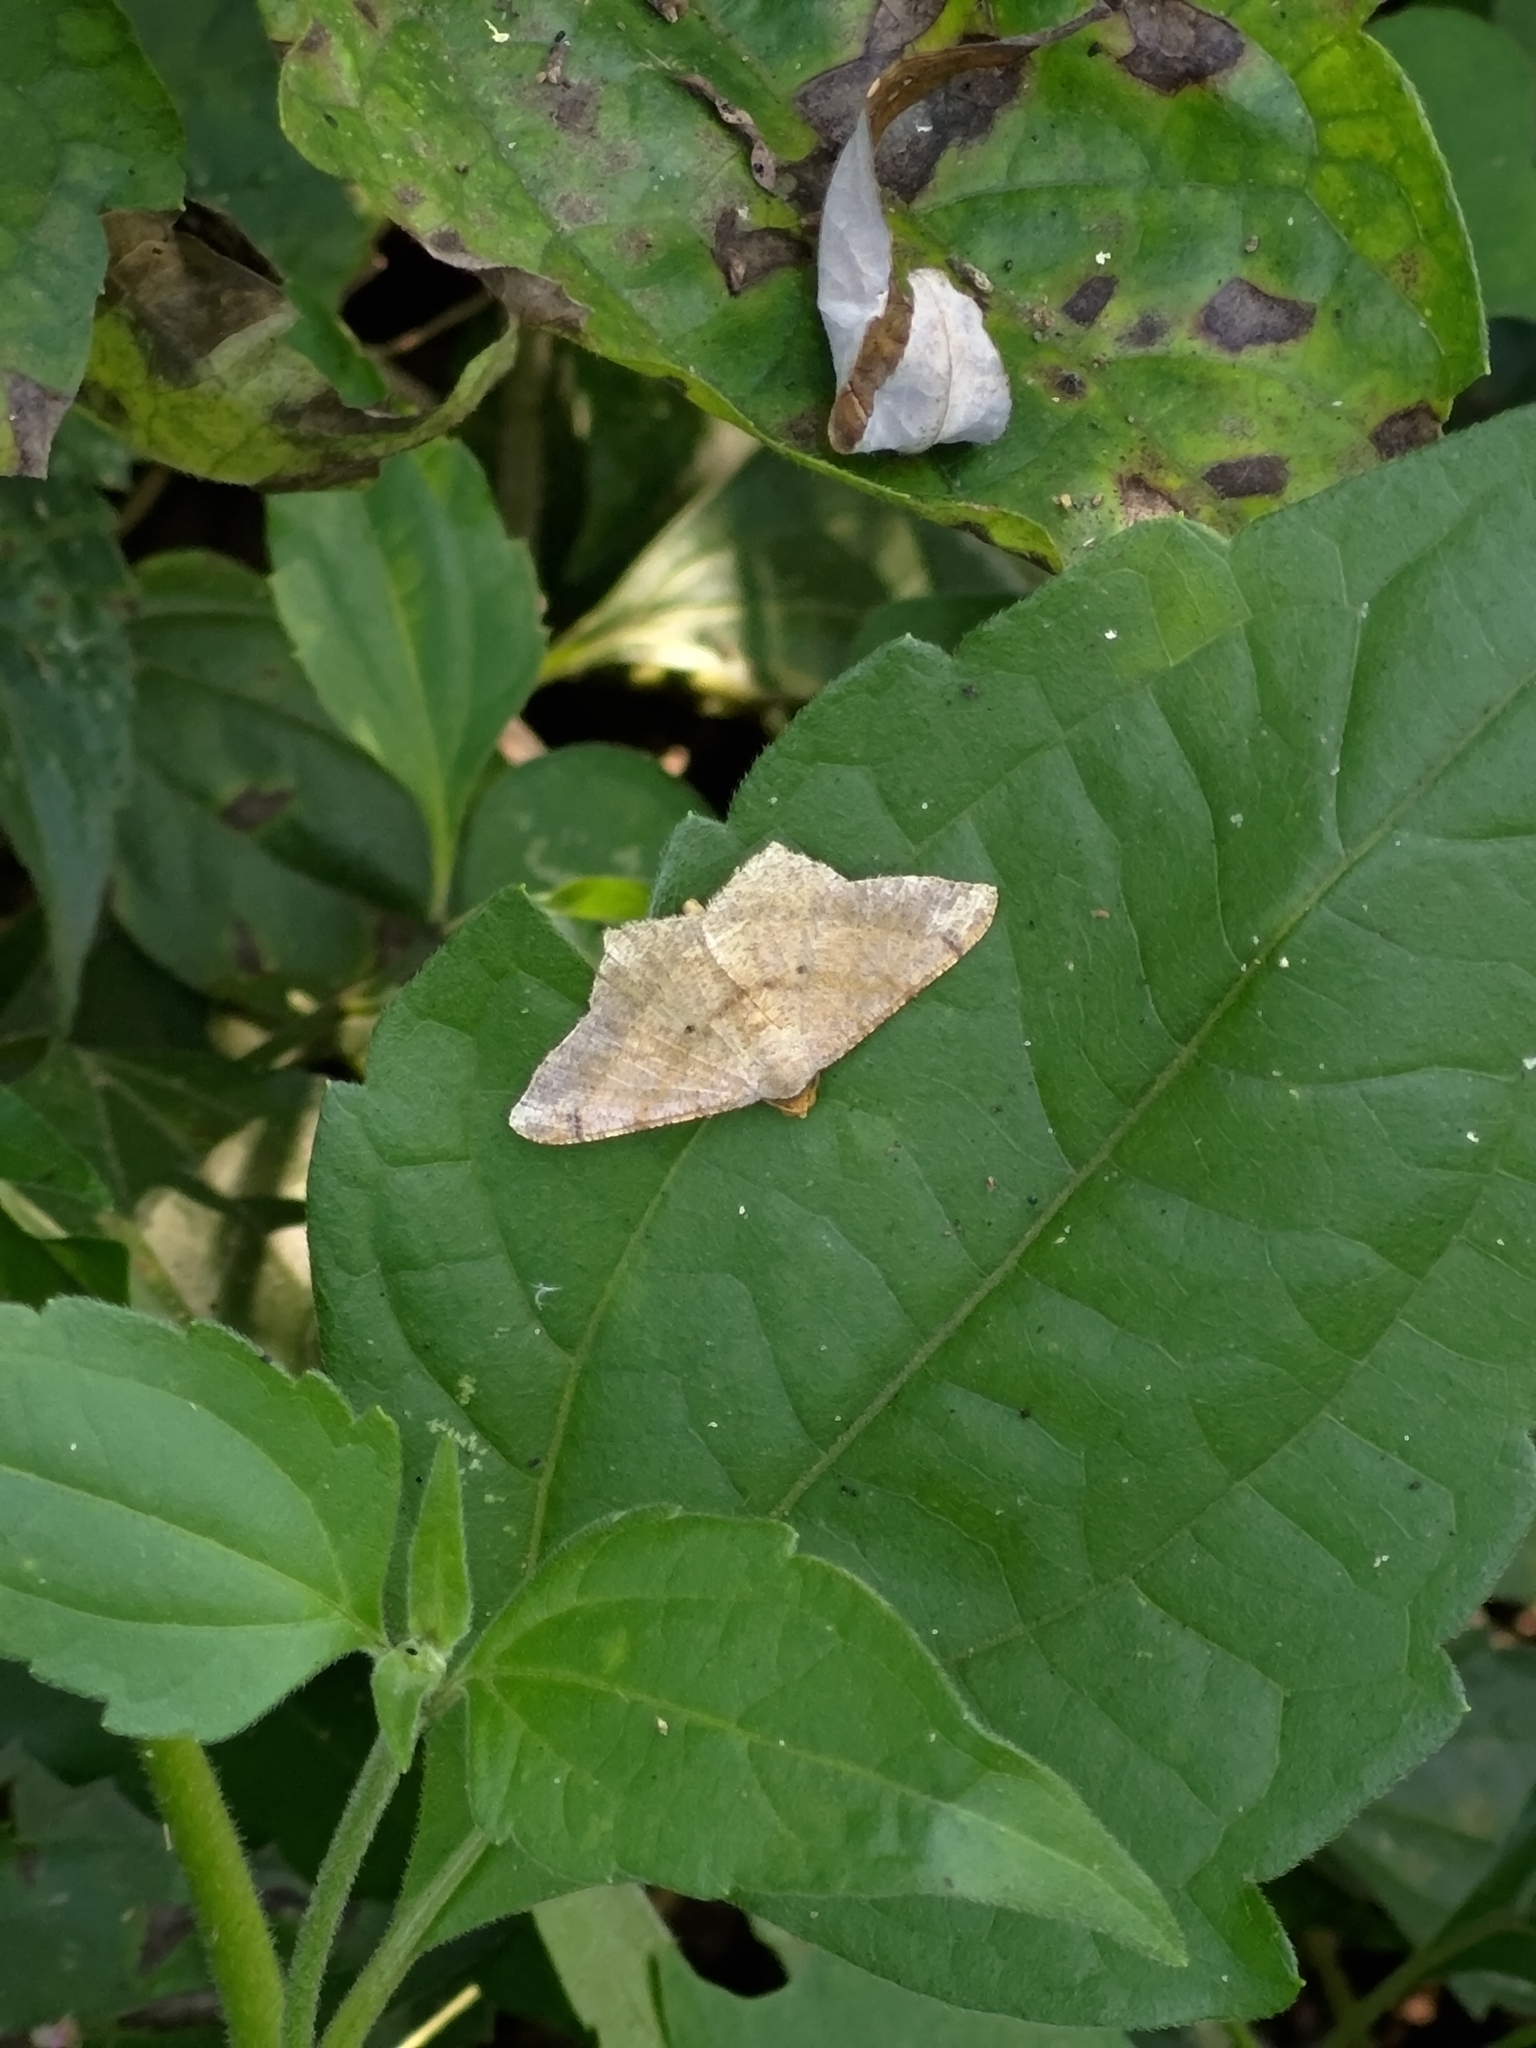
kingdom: Animalia
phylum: Arthropoda
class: Insecta
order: Lepidoptera
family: Geometridae
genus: Macaria
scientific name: Macaria abydata
